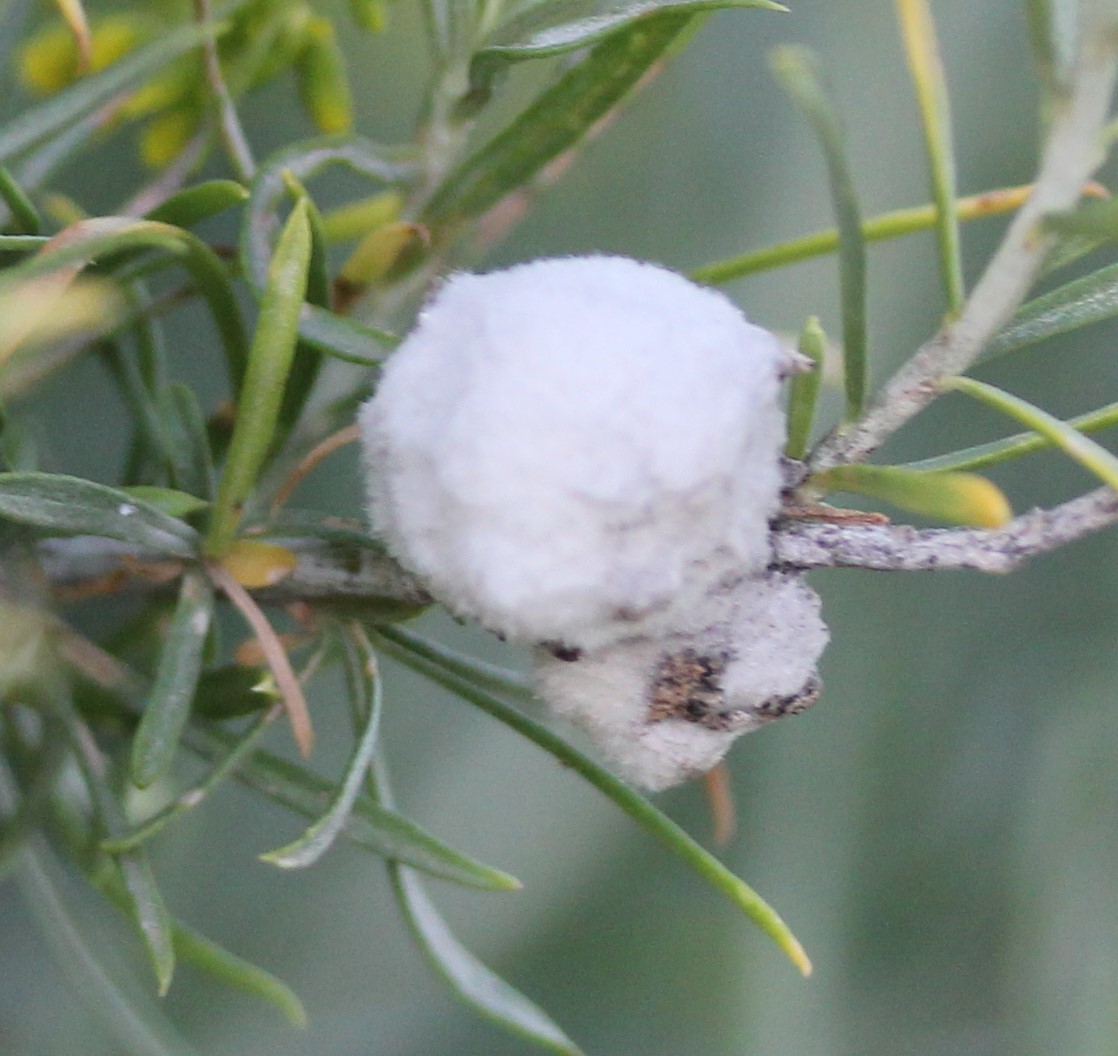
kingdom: Animalia
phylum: Arthropoda
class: Insecta
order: Diptera
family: Tephritidae
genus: Aciurina
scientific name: Aciurina bigeloviae
